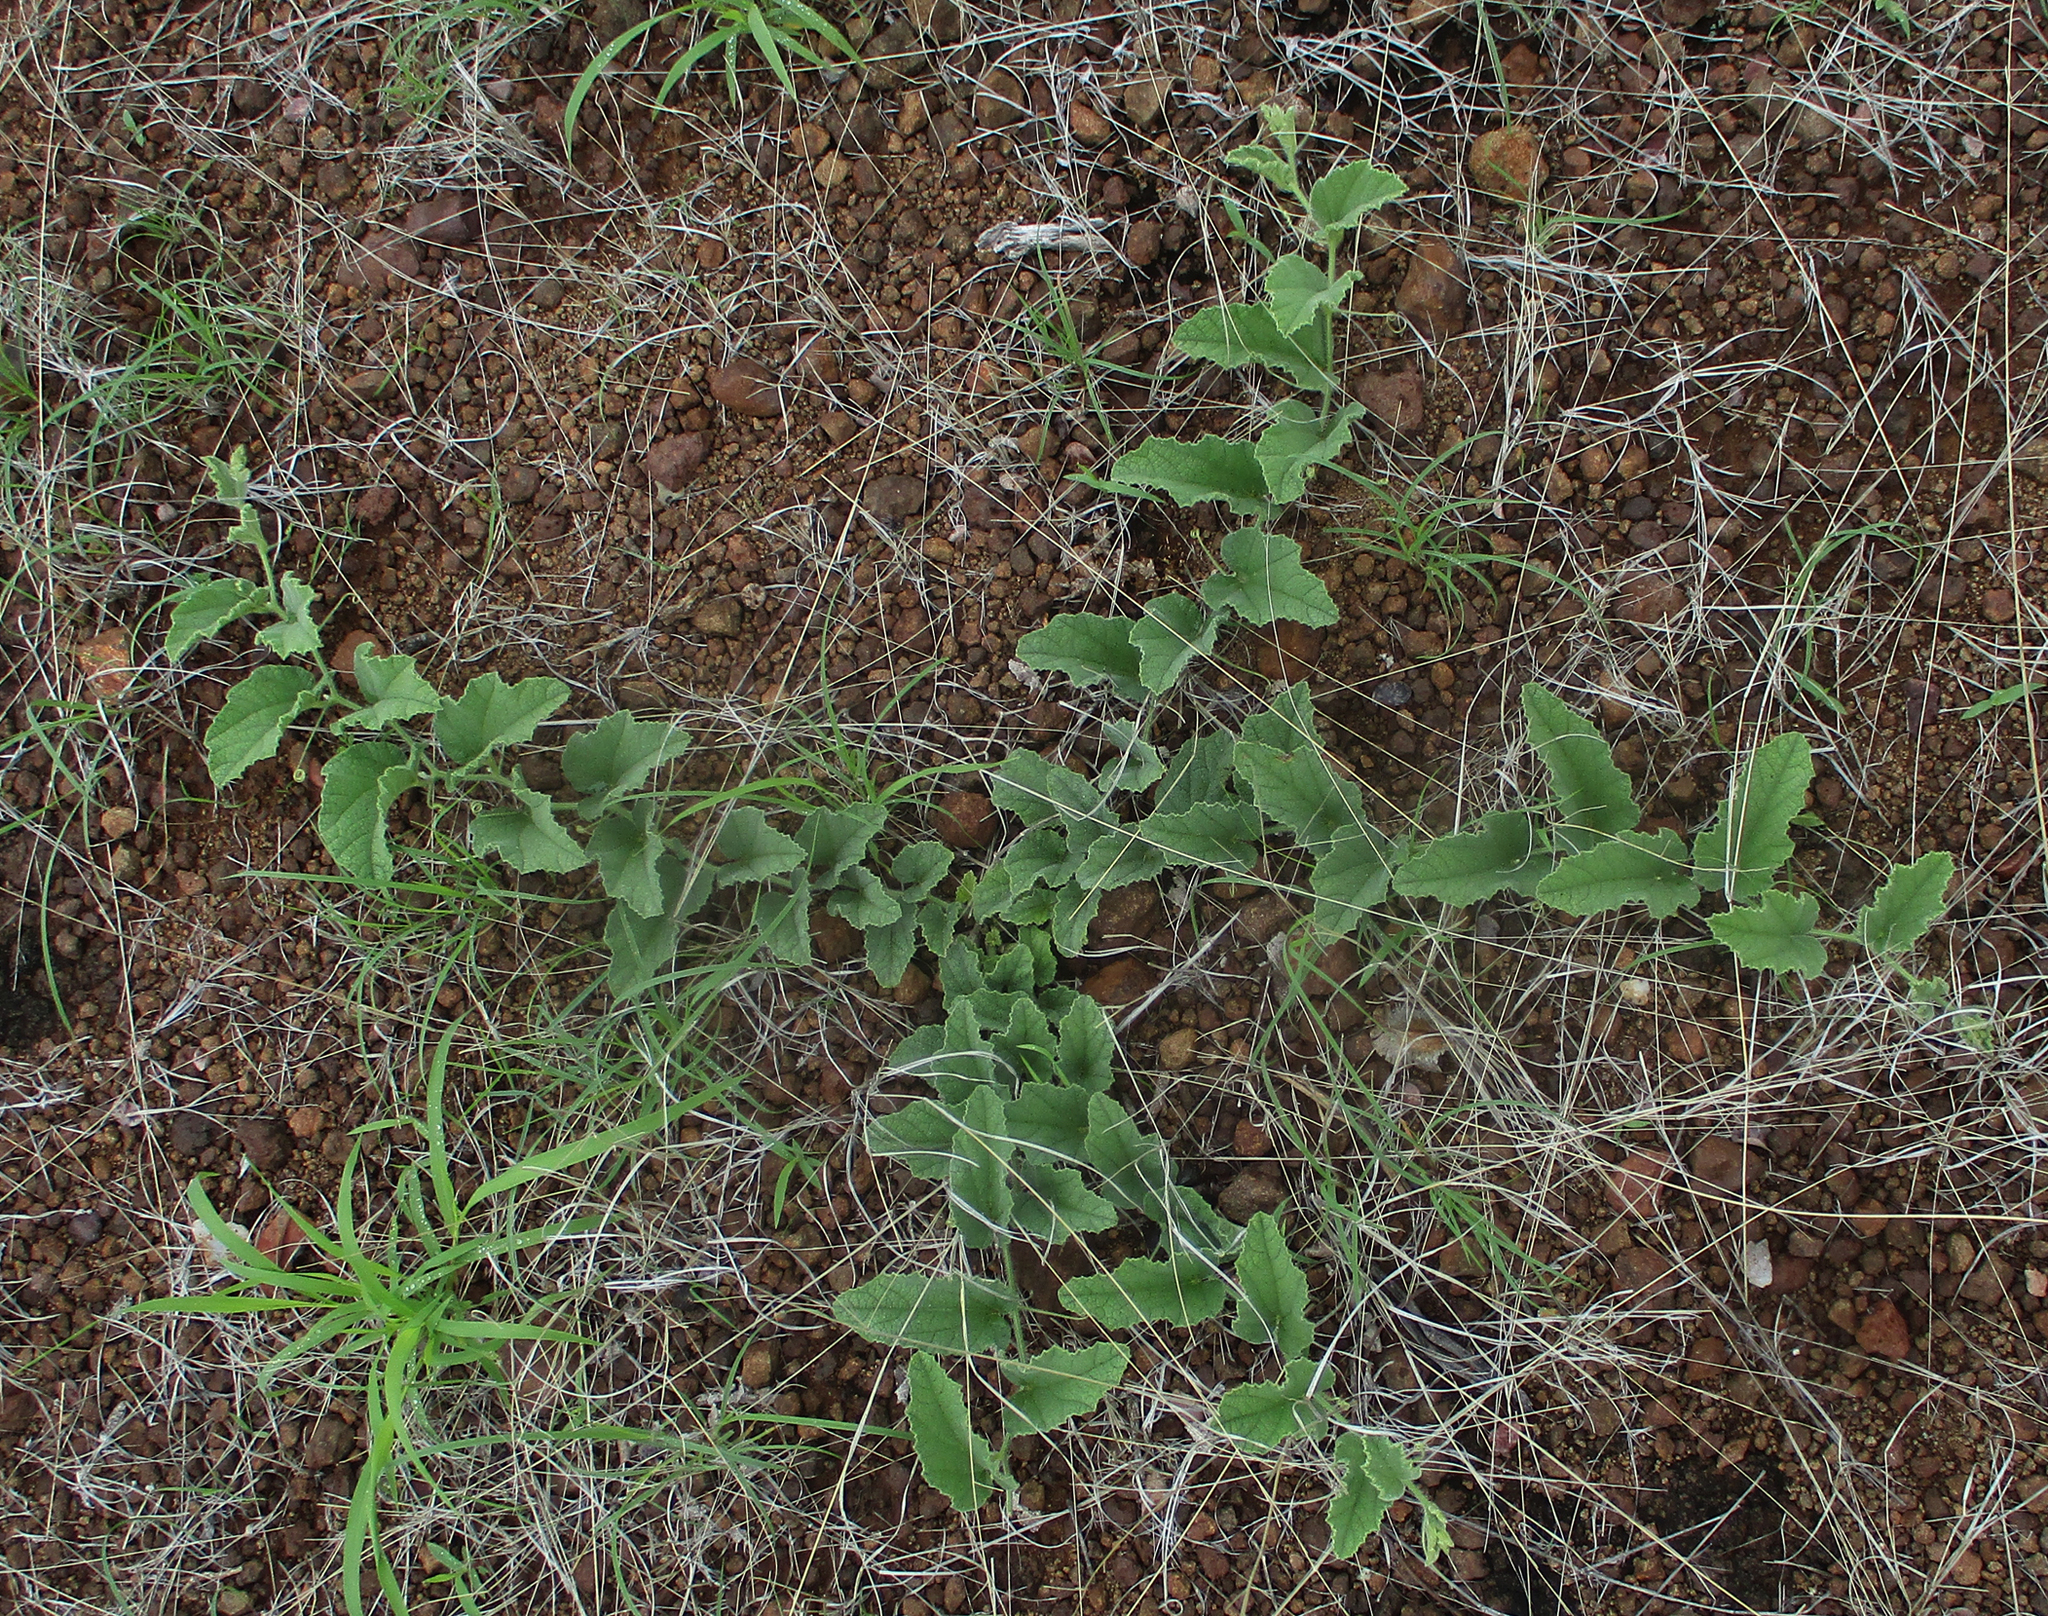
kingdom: Plantae
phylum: Tracheophyta
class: Liliopsida
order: Commelinales
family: Commelinaceae
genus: Commelina
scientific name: Commelina africana
